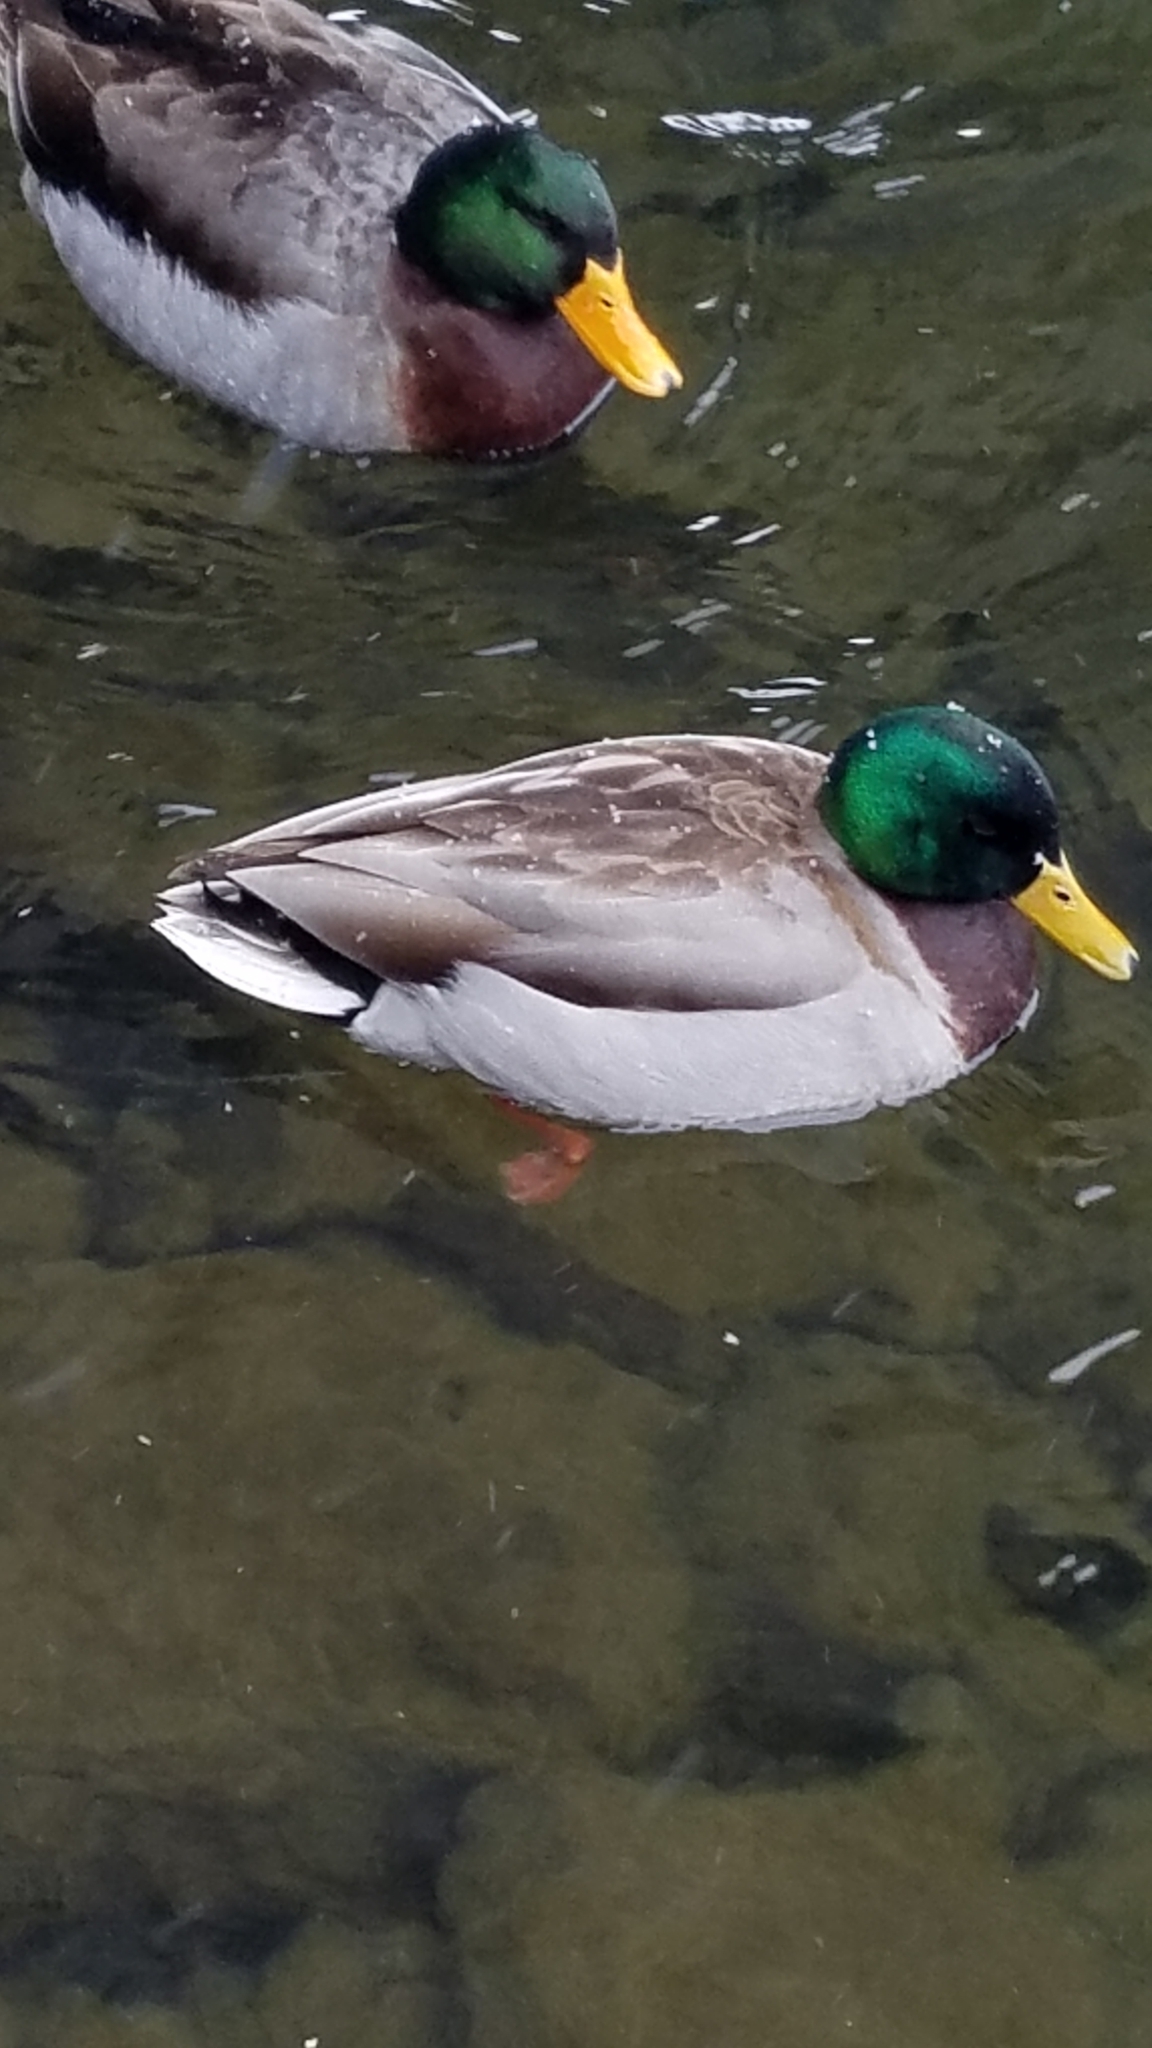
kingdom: Animalia
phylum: Chordata
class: Aves
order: Anseriformes
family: Anatidae
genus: Anas
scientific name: Anas platyrhynchos
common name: Mallard
